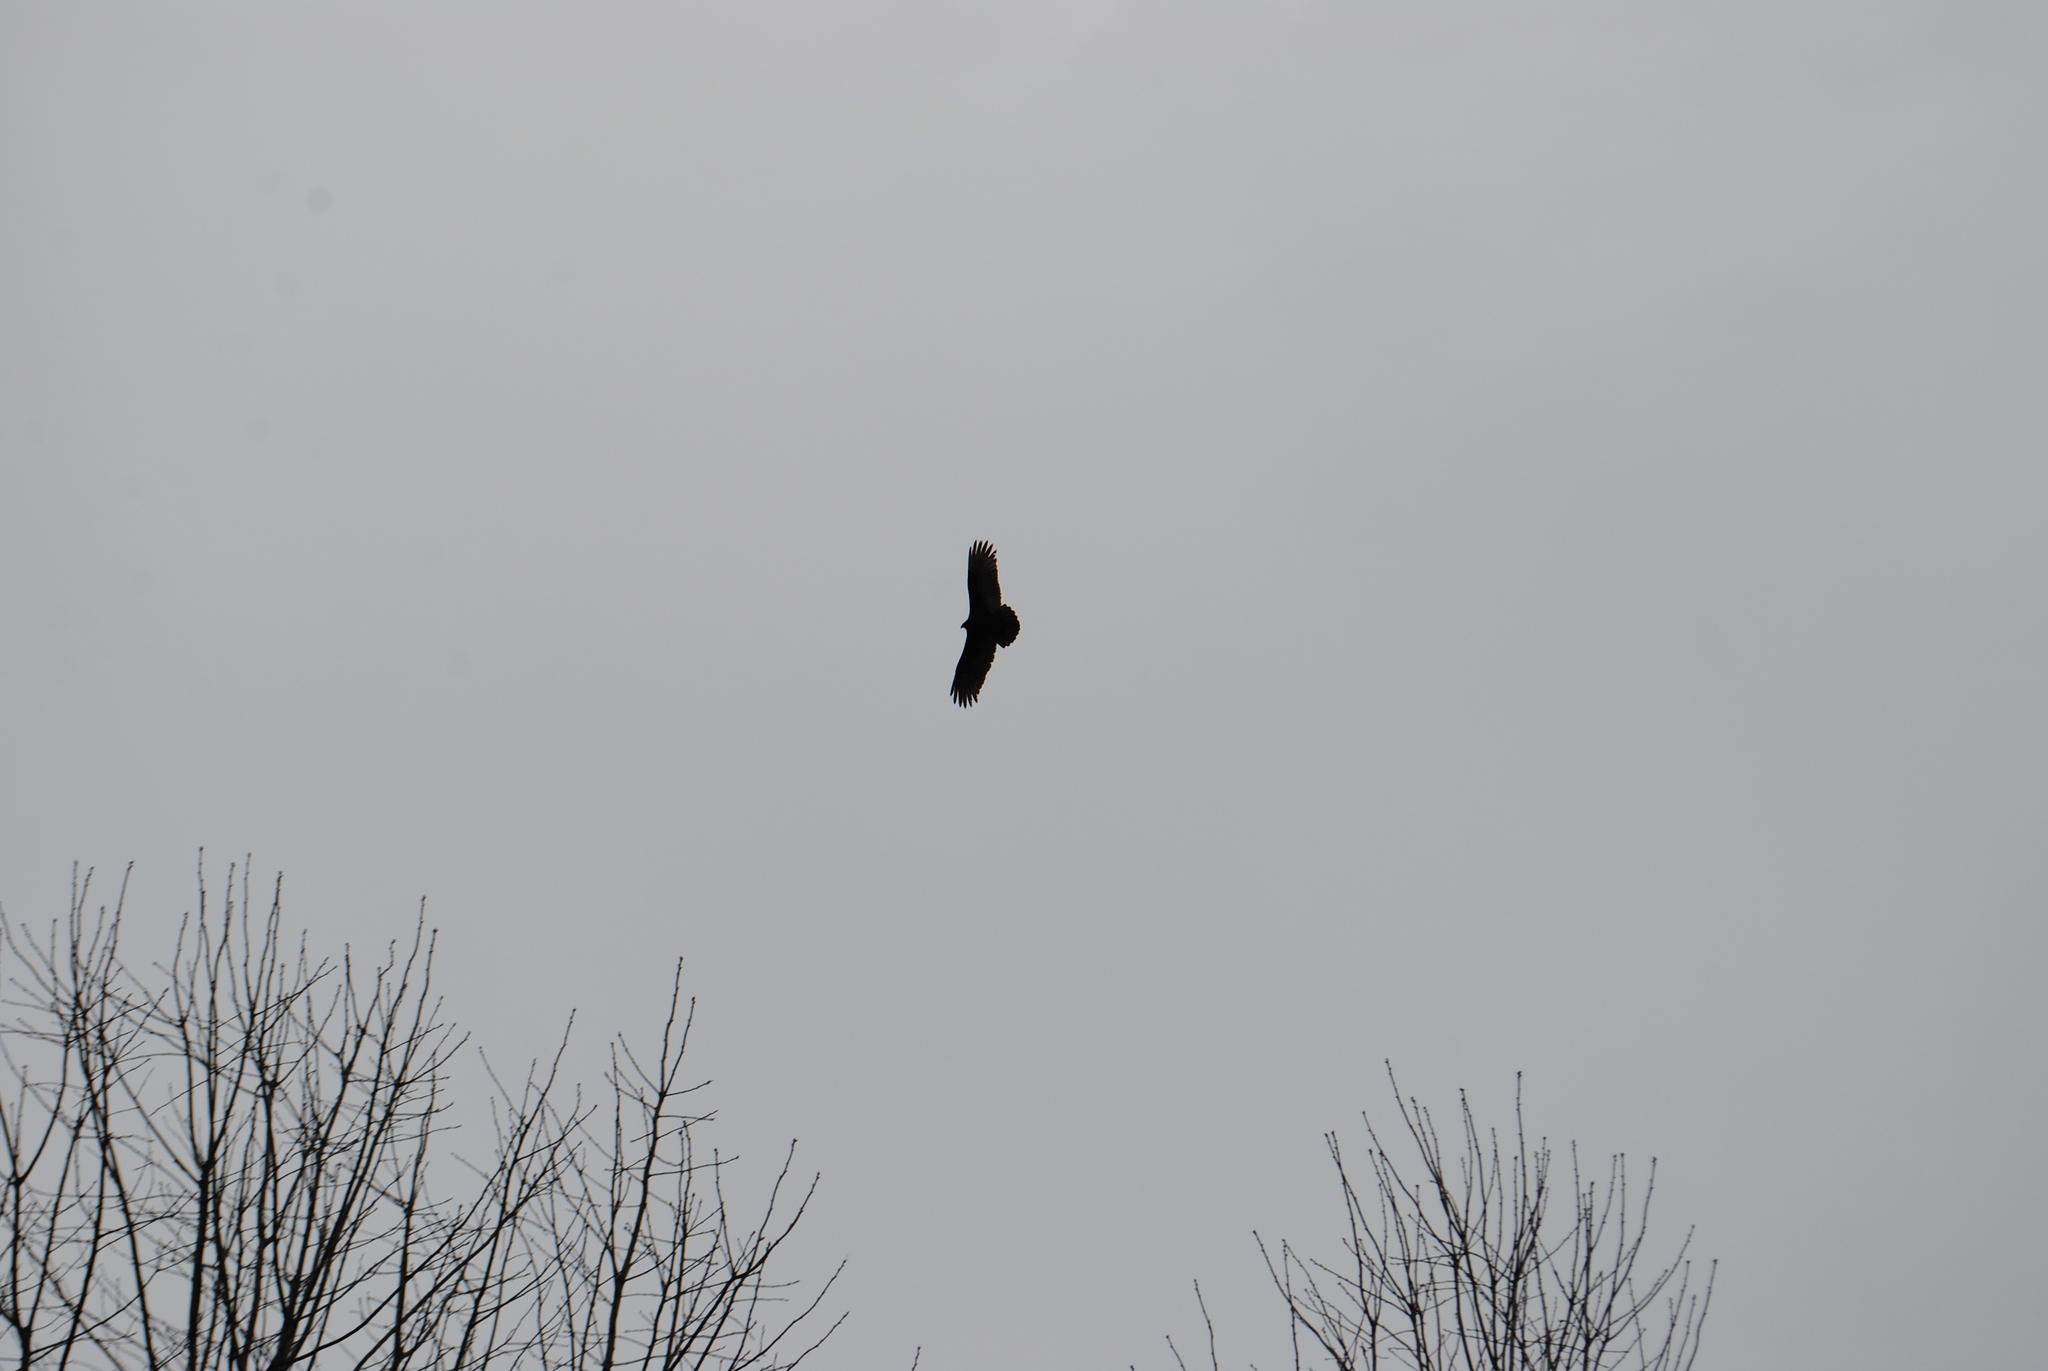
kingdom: Animalia
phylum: Chordata
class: Aves
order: Accipitriformes
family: Cathartidae
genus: Cathartes
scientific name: Cathartes aura
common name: Turkey vulture
